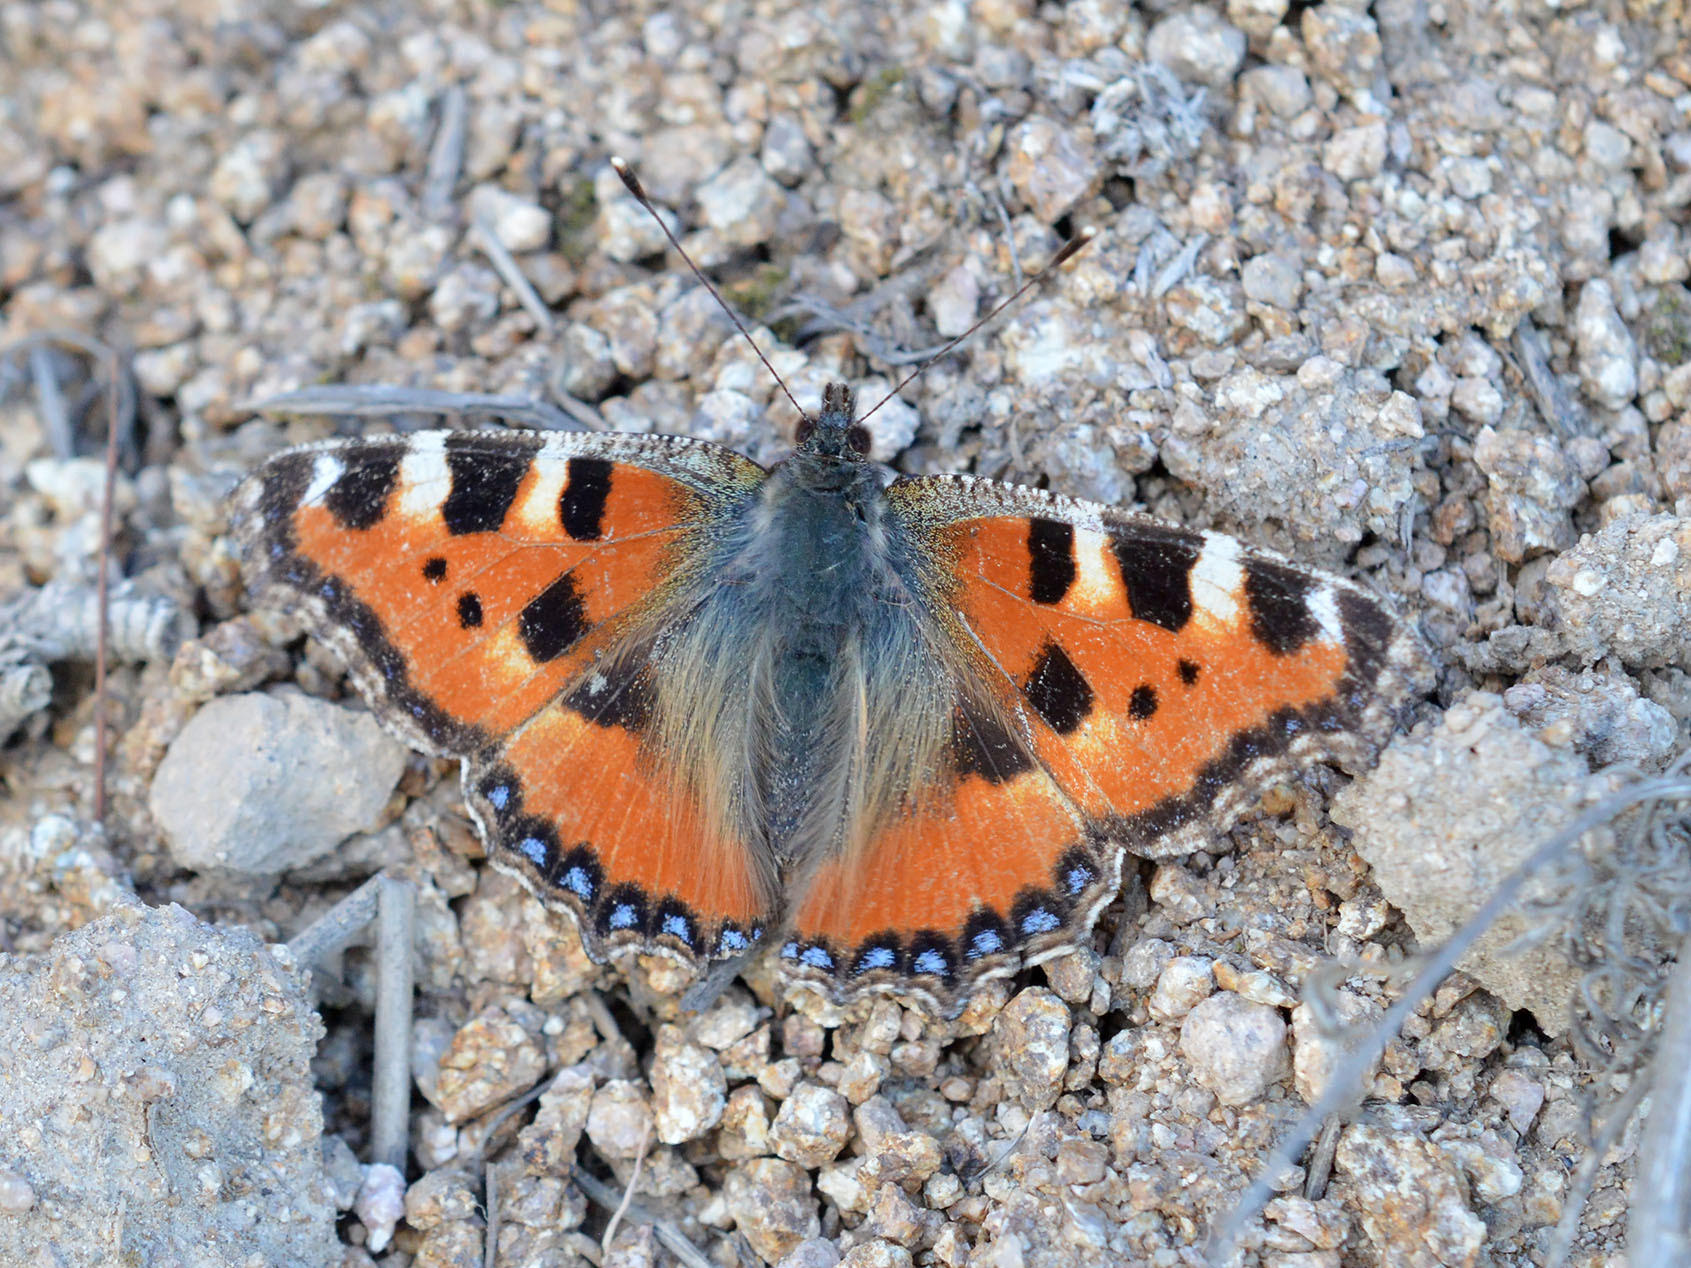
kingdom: Animalia
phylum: Arthropoda
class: Insecta
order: Lepidoptera
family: Nymphalidae
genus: Aglais
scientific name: Aglais urticae
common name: Small tortoiseshell
